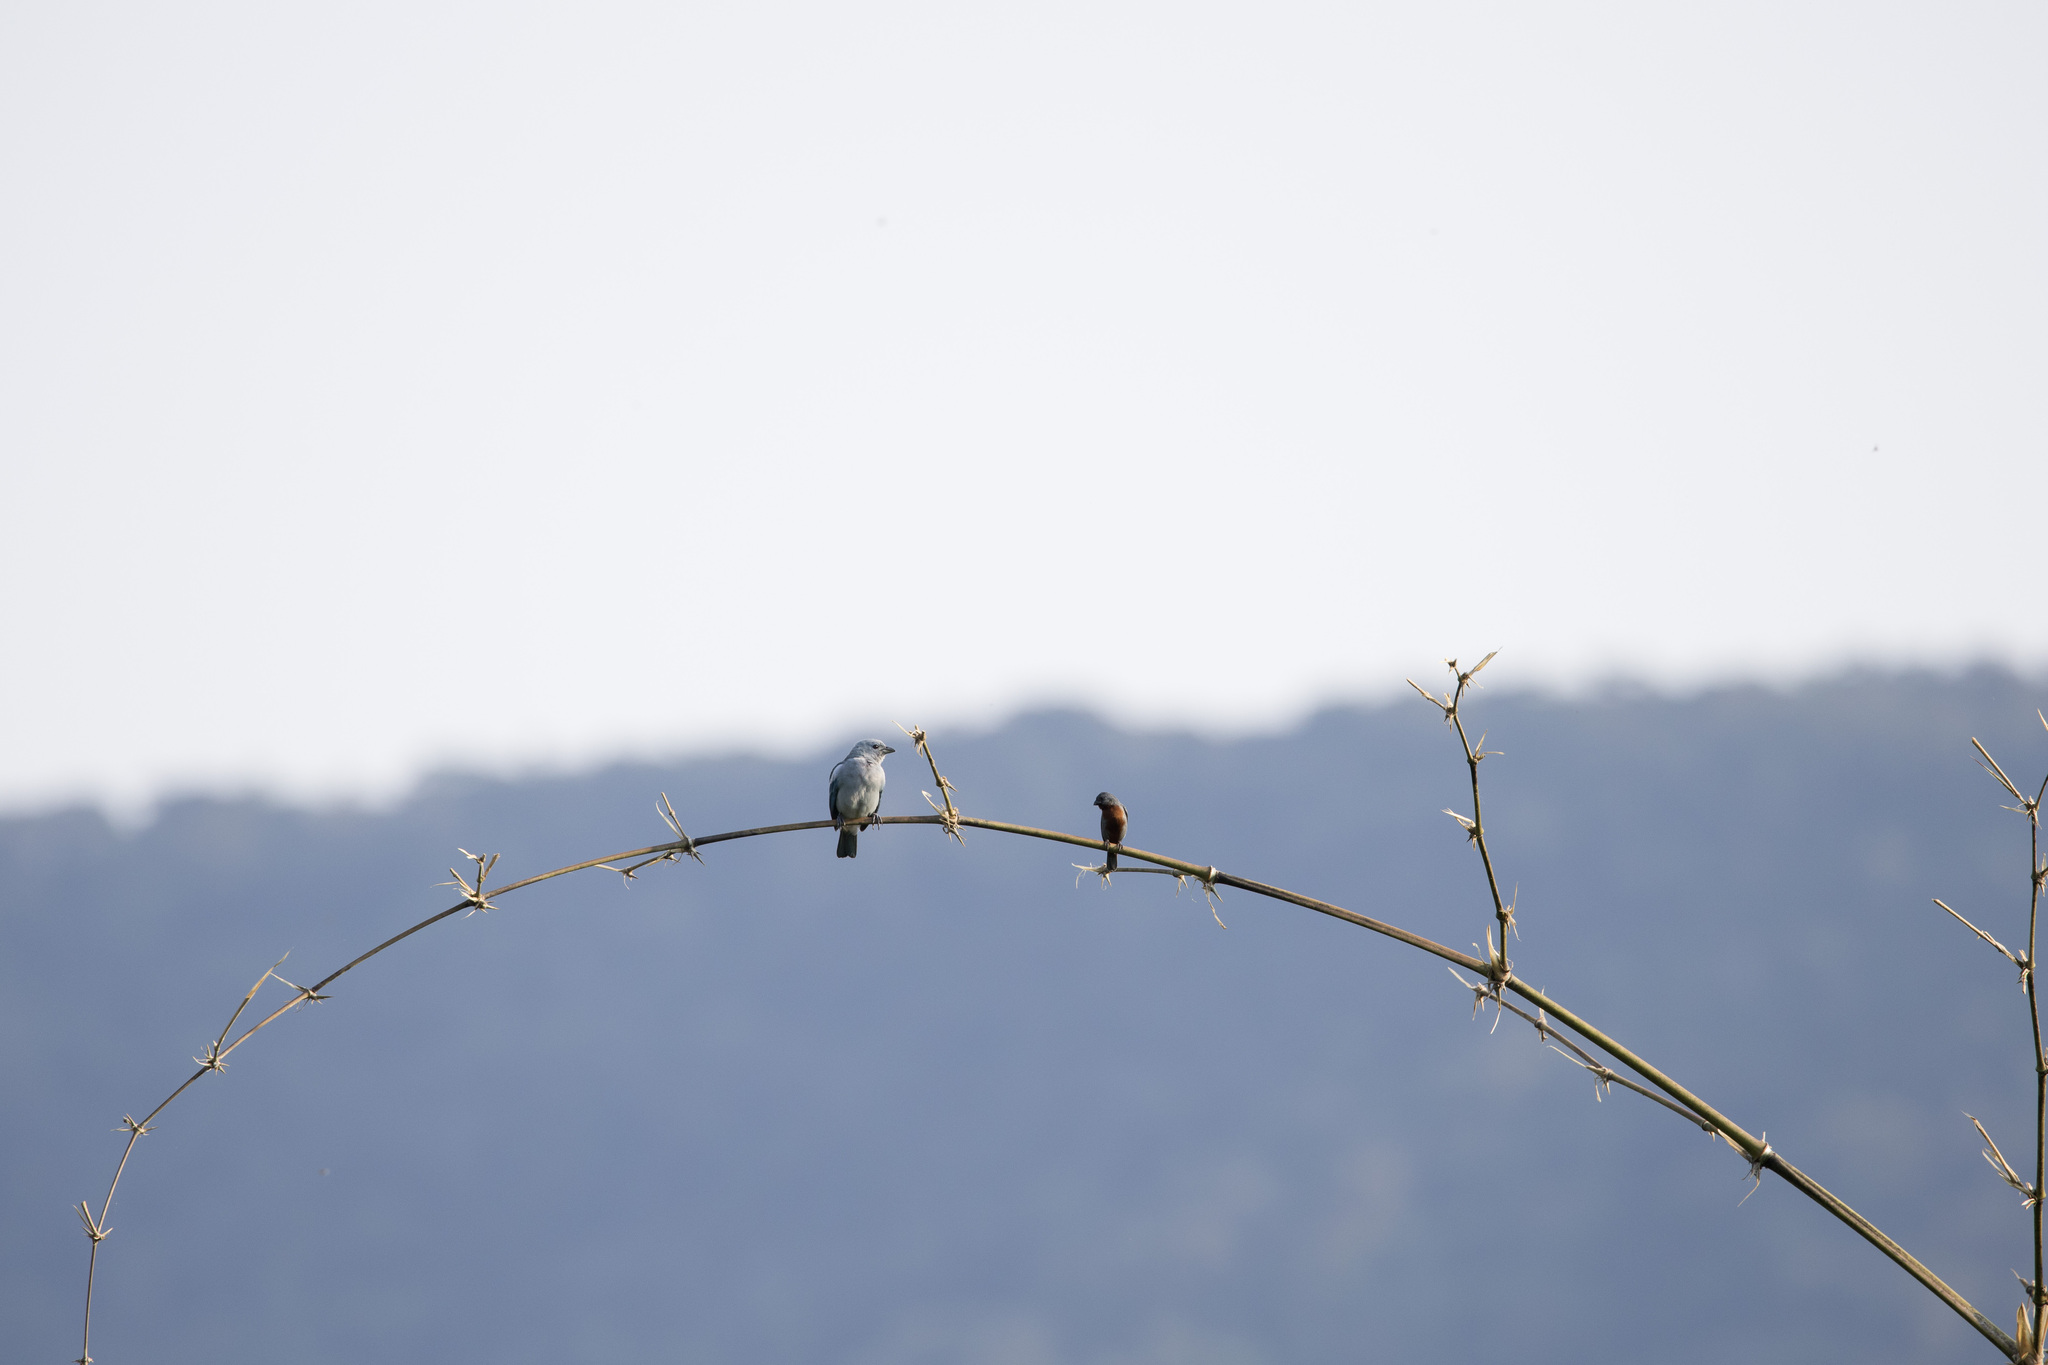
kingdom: Animalia
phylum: Chordata
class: Aves
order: Passeriformes
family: Thraupidae
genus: Thraupis
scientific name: Thraupis episcopus
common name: Blue-grey tanager
